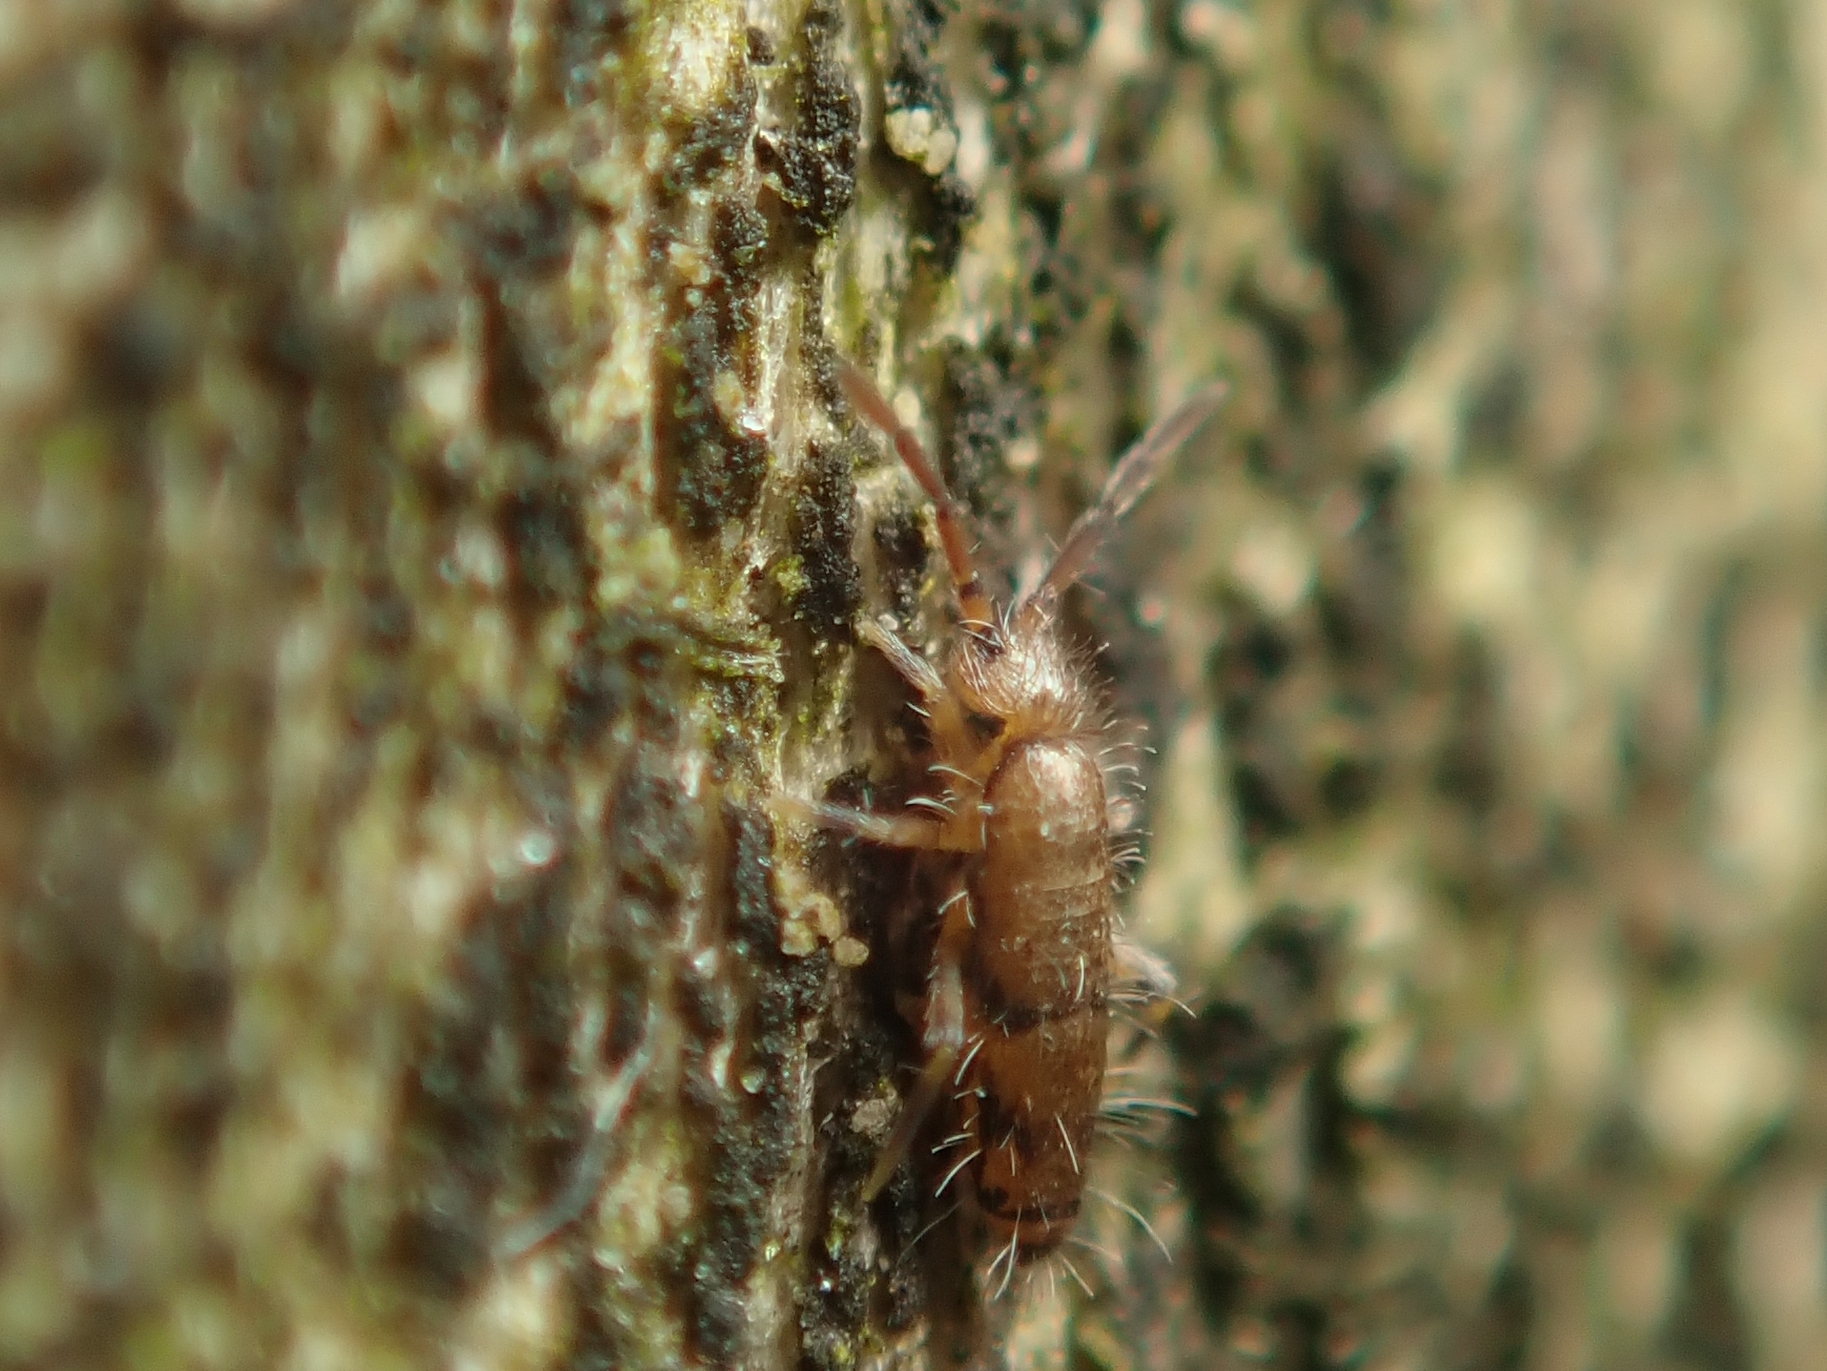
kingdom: Animalia
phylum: Arthropoda
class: Collembola
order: Entomobryomorpha
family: Entomobryidae
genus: Willowsia
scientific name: Willowsia nigromaculata
